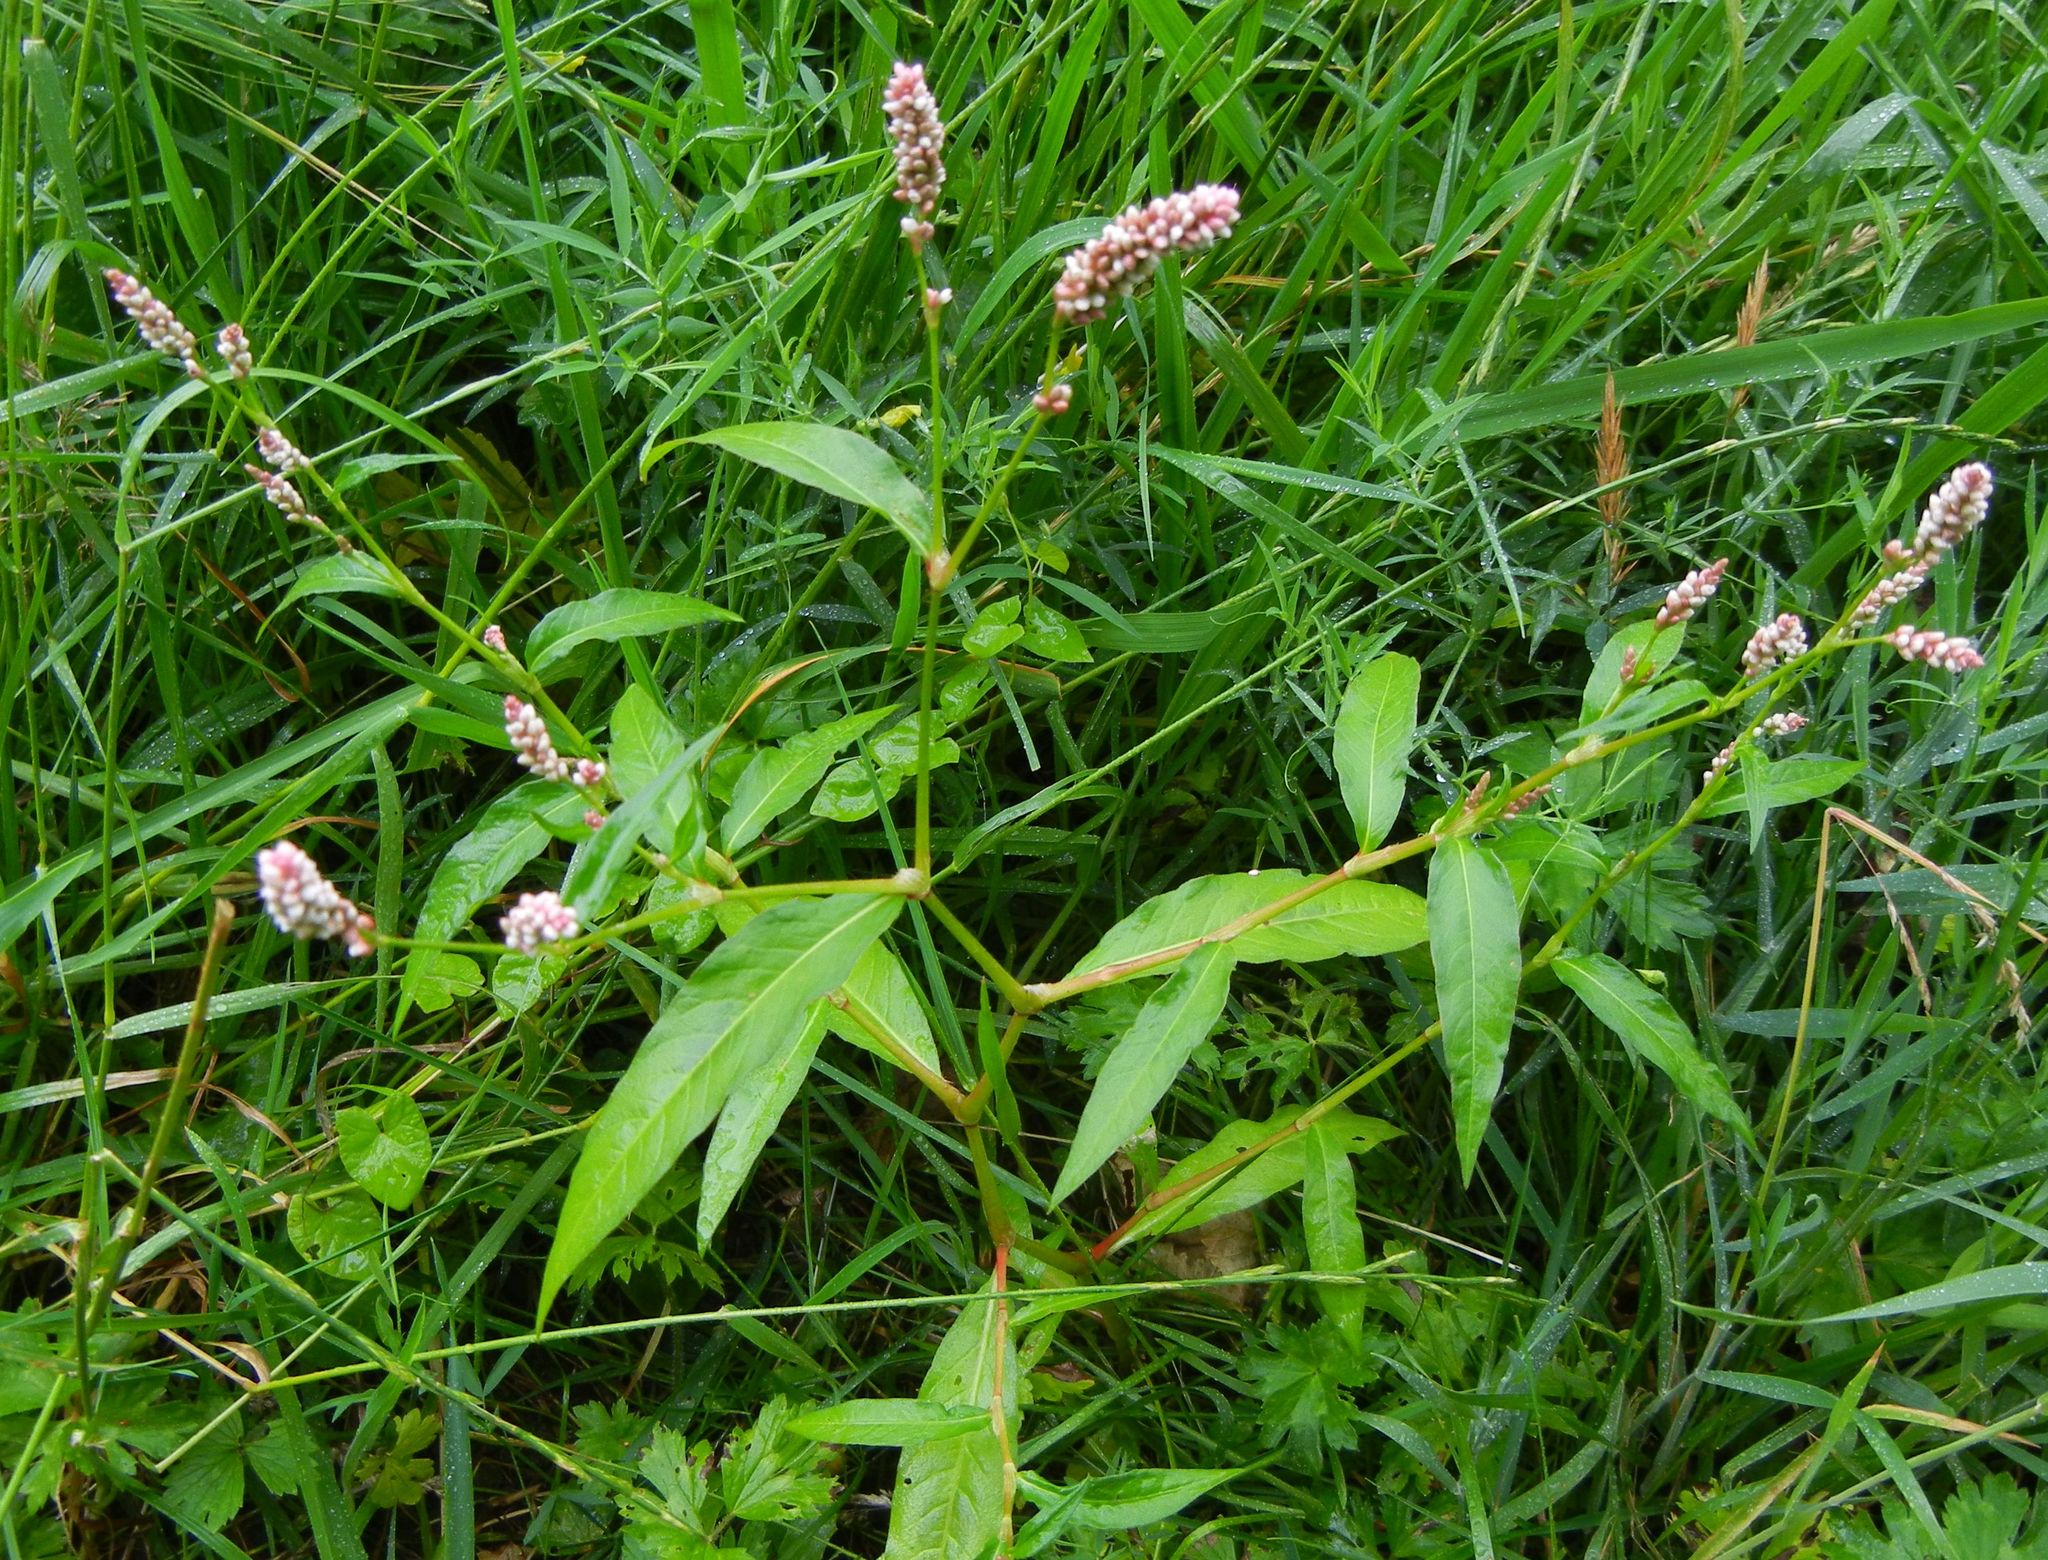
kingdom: Plantae
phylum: Tracheophyta
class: Magnoliopsida
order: Caryophyllales
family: Polygonaceae
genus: Persicaria
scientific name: Persicaria maculosa
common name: Redshank
